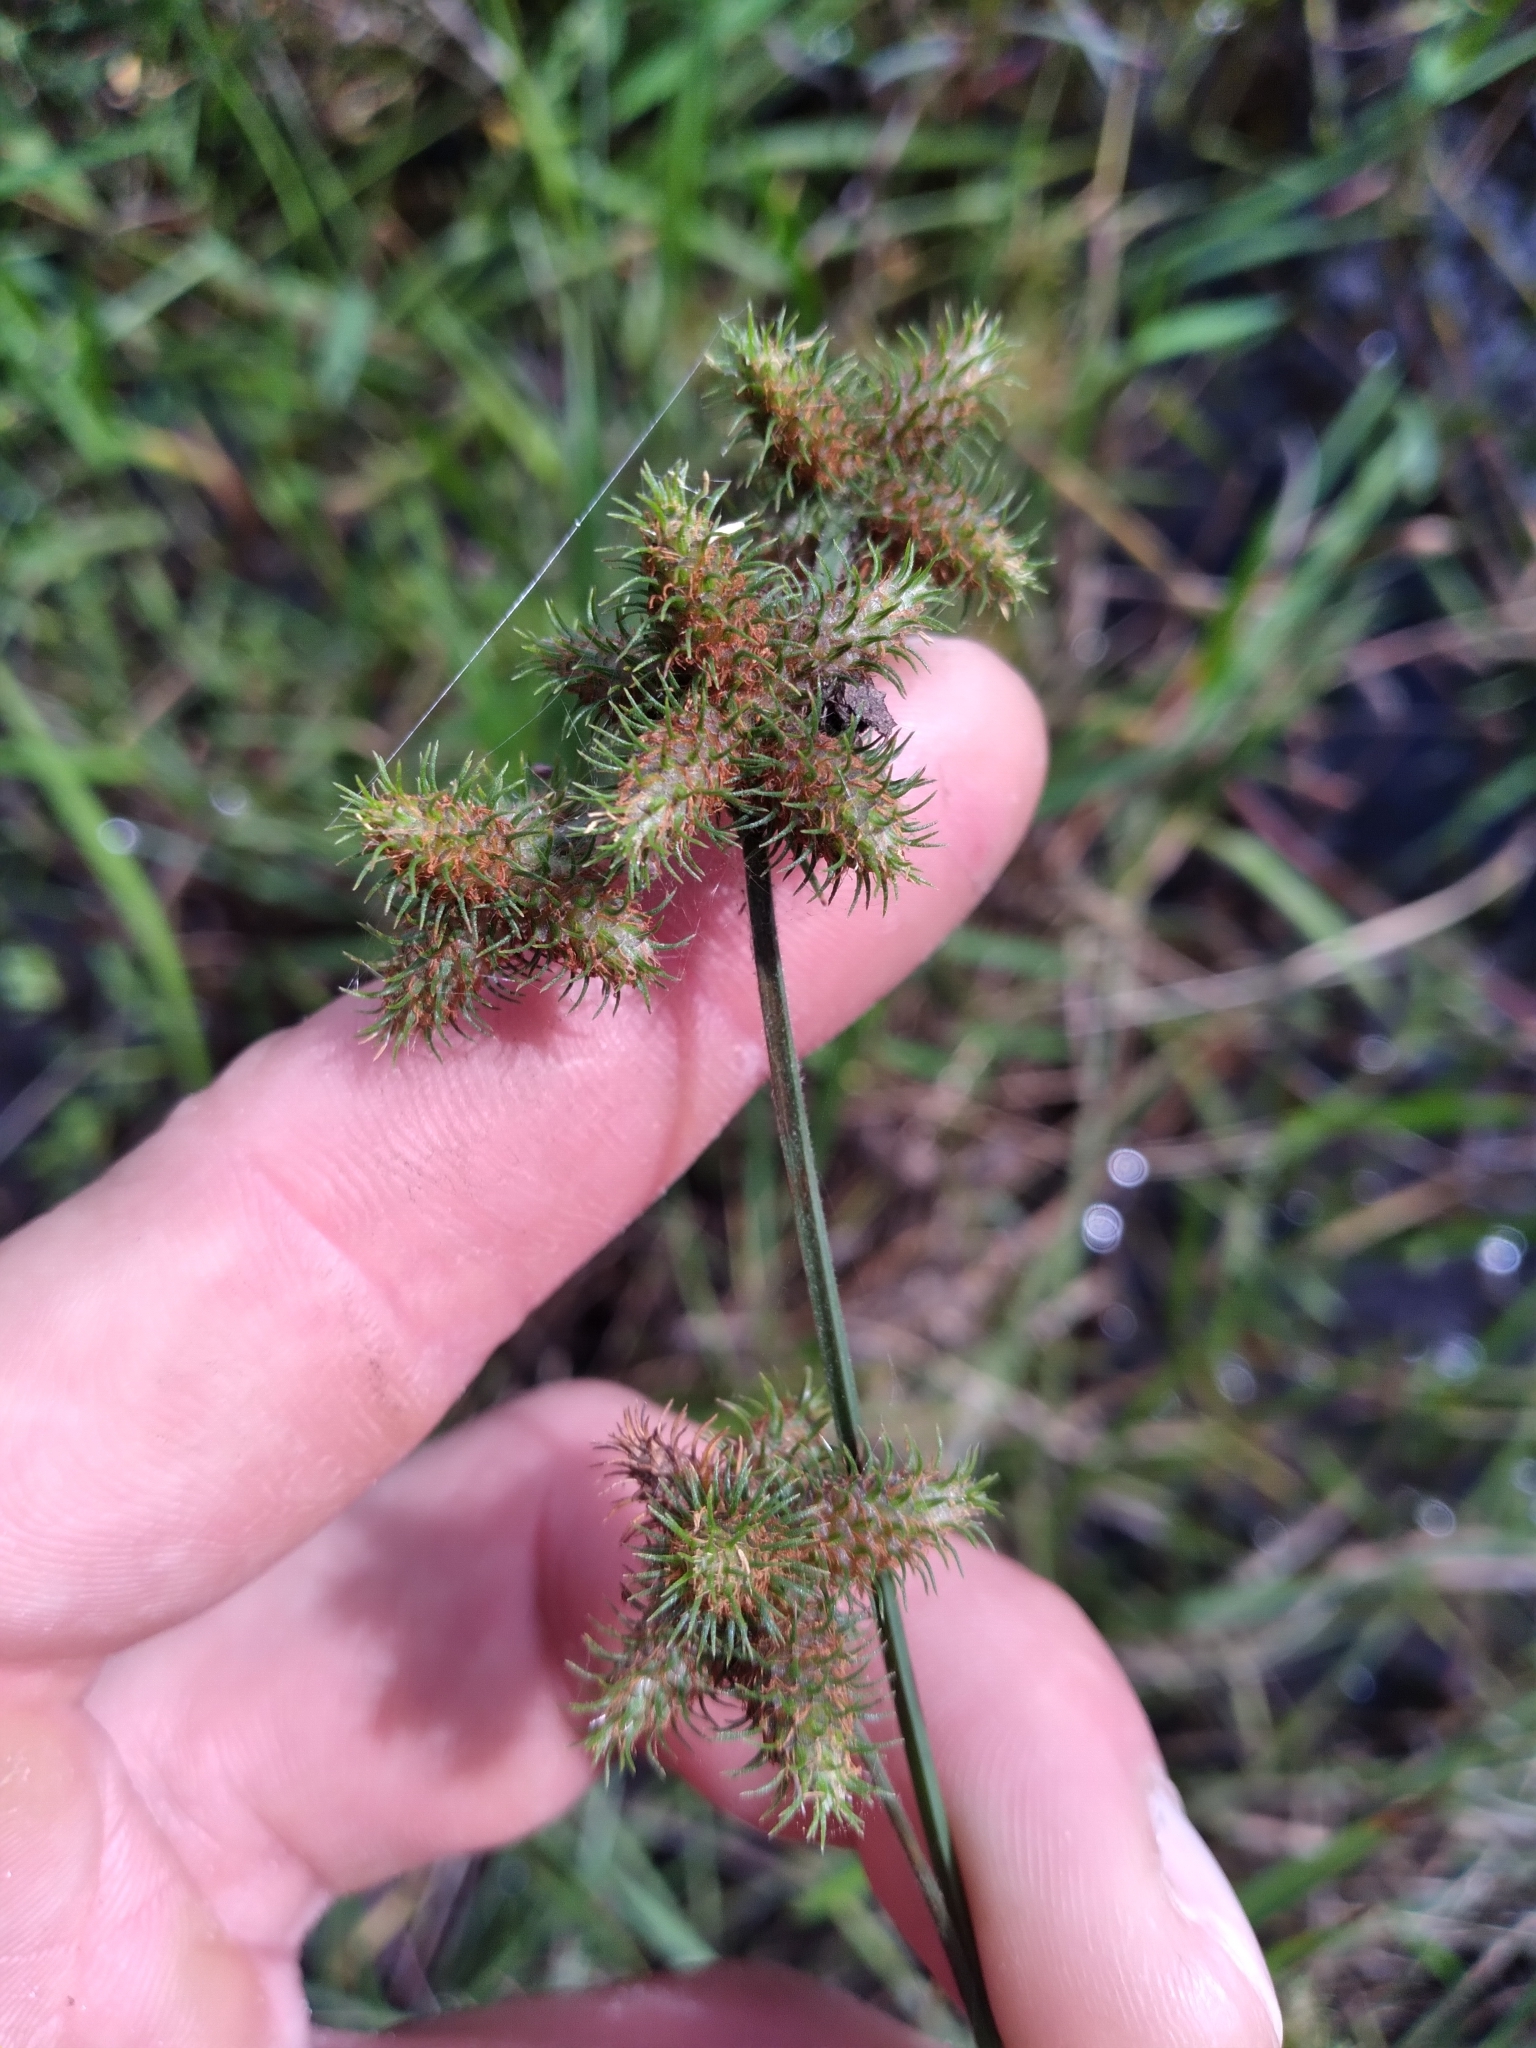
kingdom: Plantae
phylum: Tracheophyta
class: Liliopsida
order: Poales
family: Cyperaceae
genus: Fuirena
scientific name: Fuirena breviseta
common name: Saltmarsh umbrella sedge
